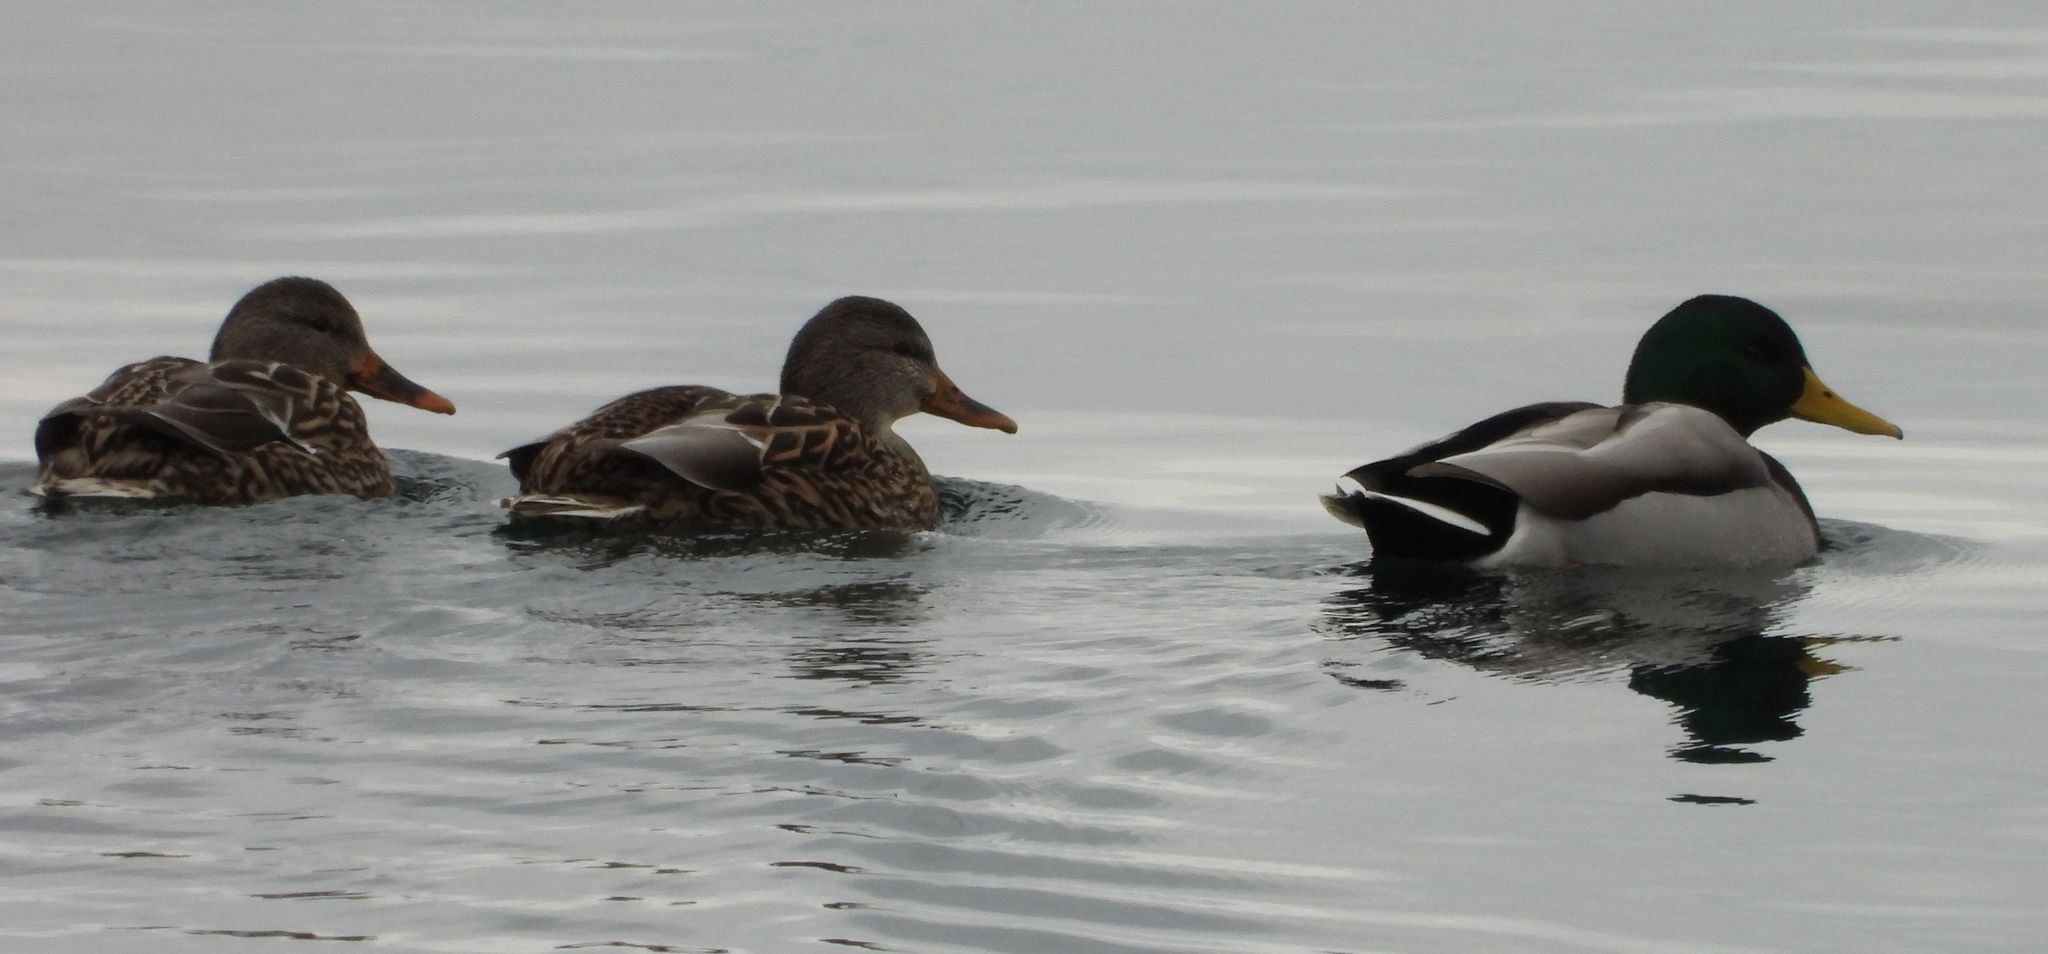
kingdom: Animalia
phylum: Chordata
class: Aves
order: Anseriformes
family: Anatidae
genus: Anas
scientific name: Anas platyrhynchos
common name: Mallard
